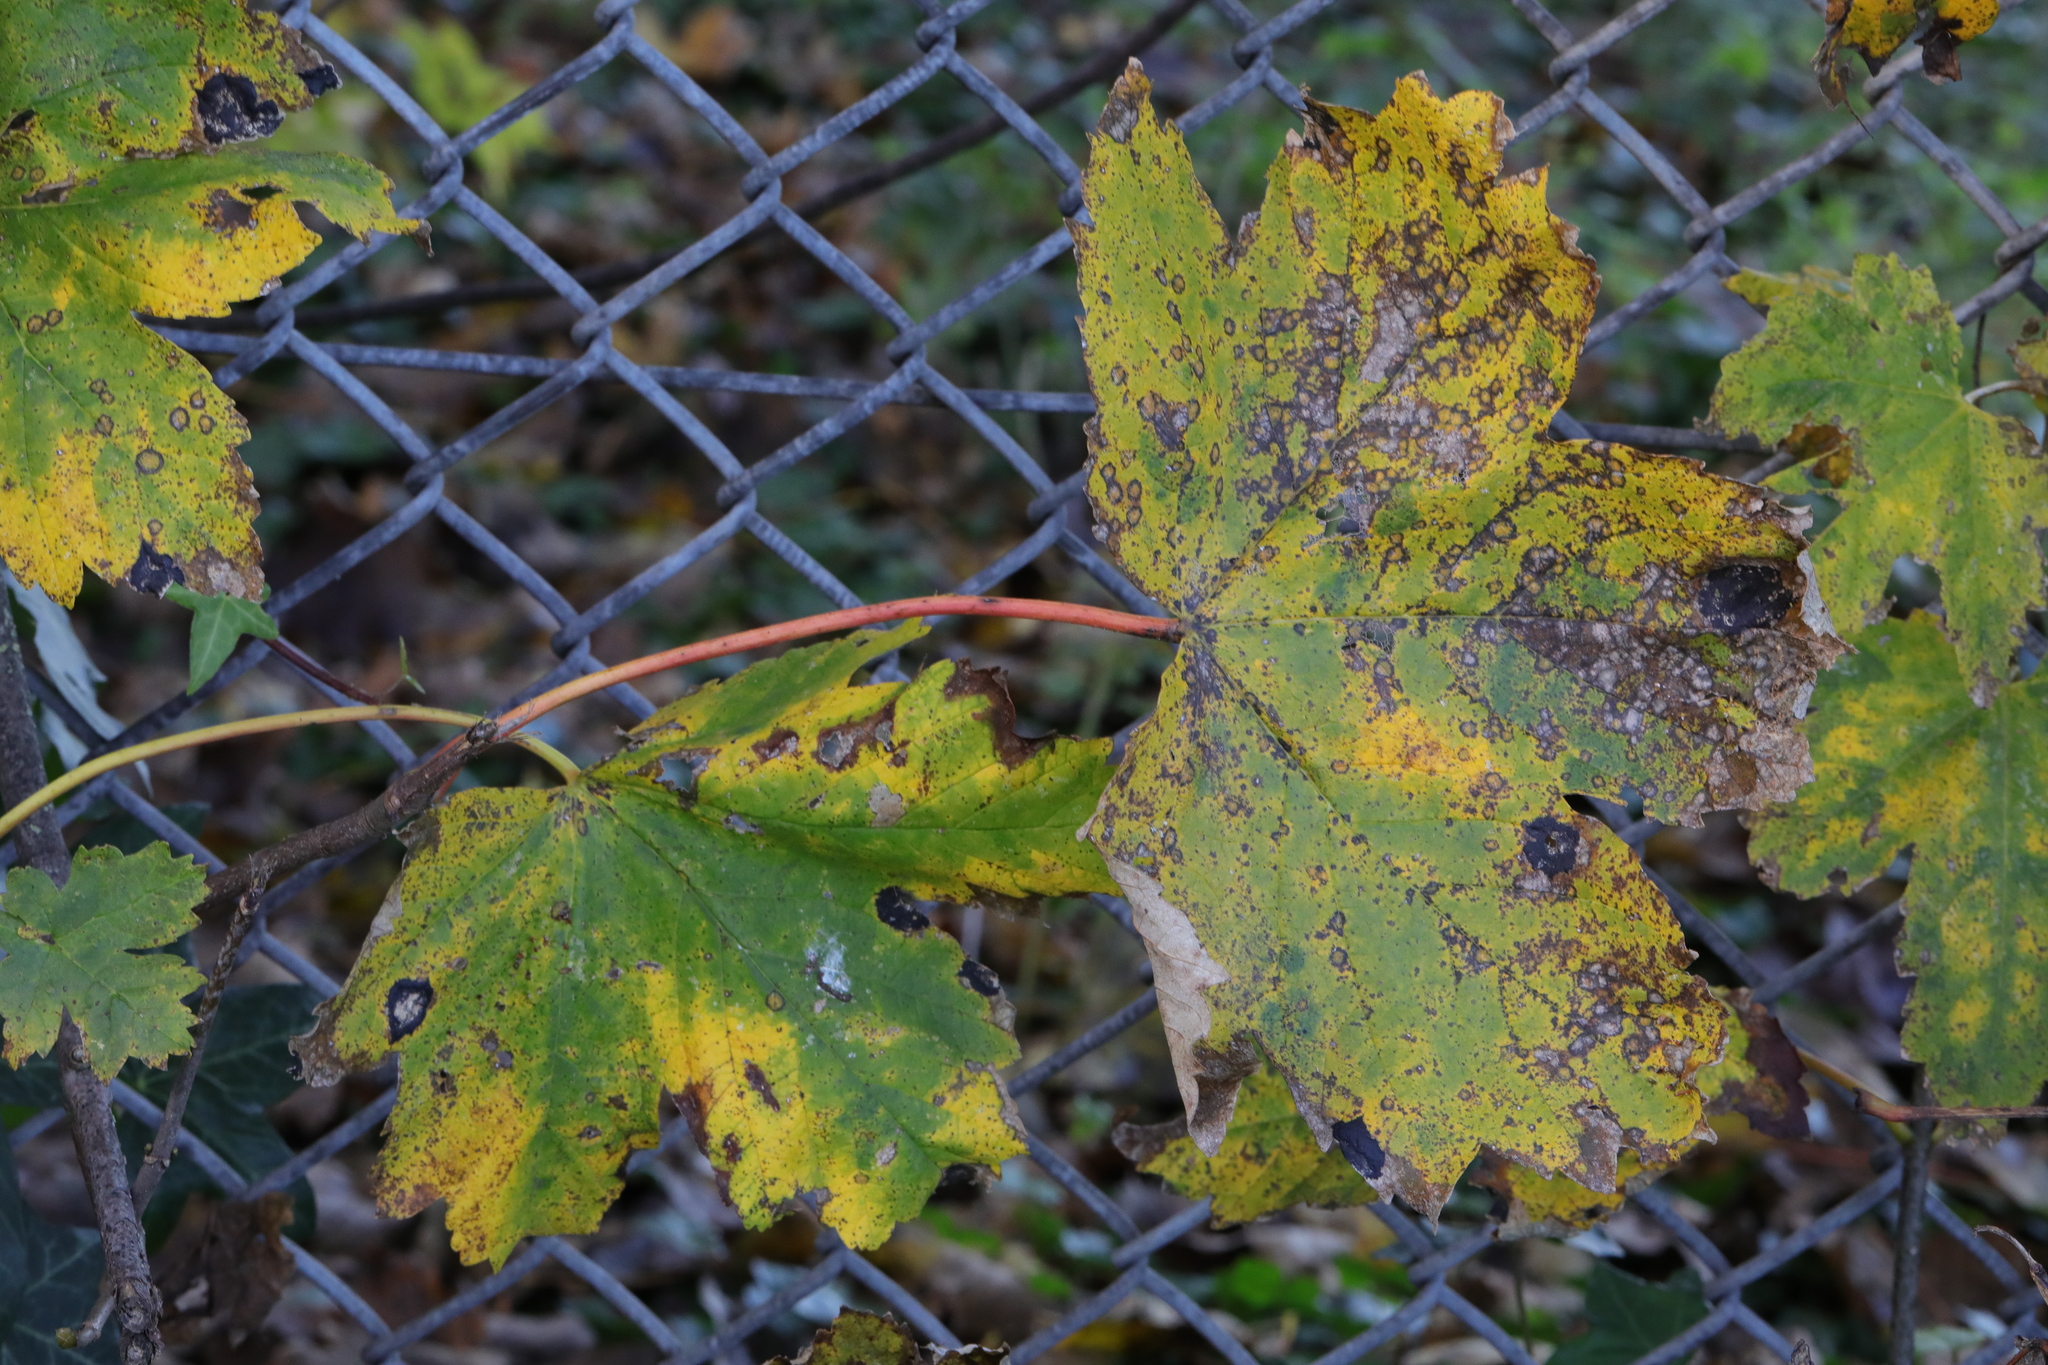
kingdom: Plantae
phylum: Tracheophyta
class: Magnoliopsida
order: Sapindales
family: Sapindaceae
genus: Acer
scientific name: Acer pseudoplatanus
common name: Sycamore
